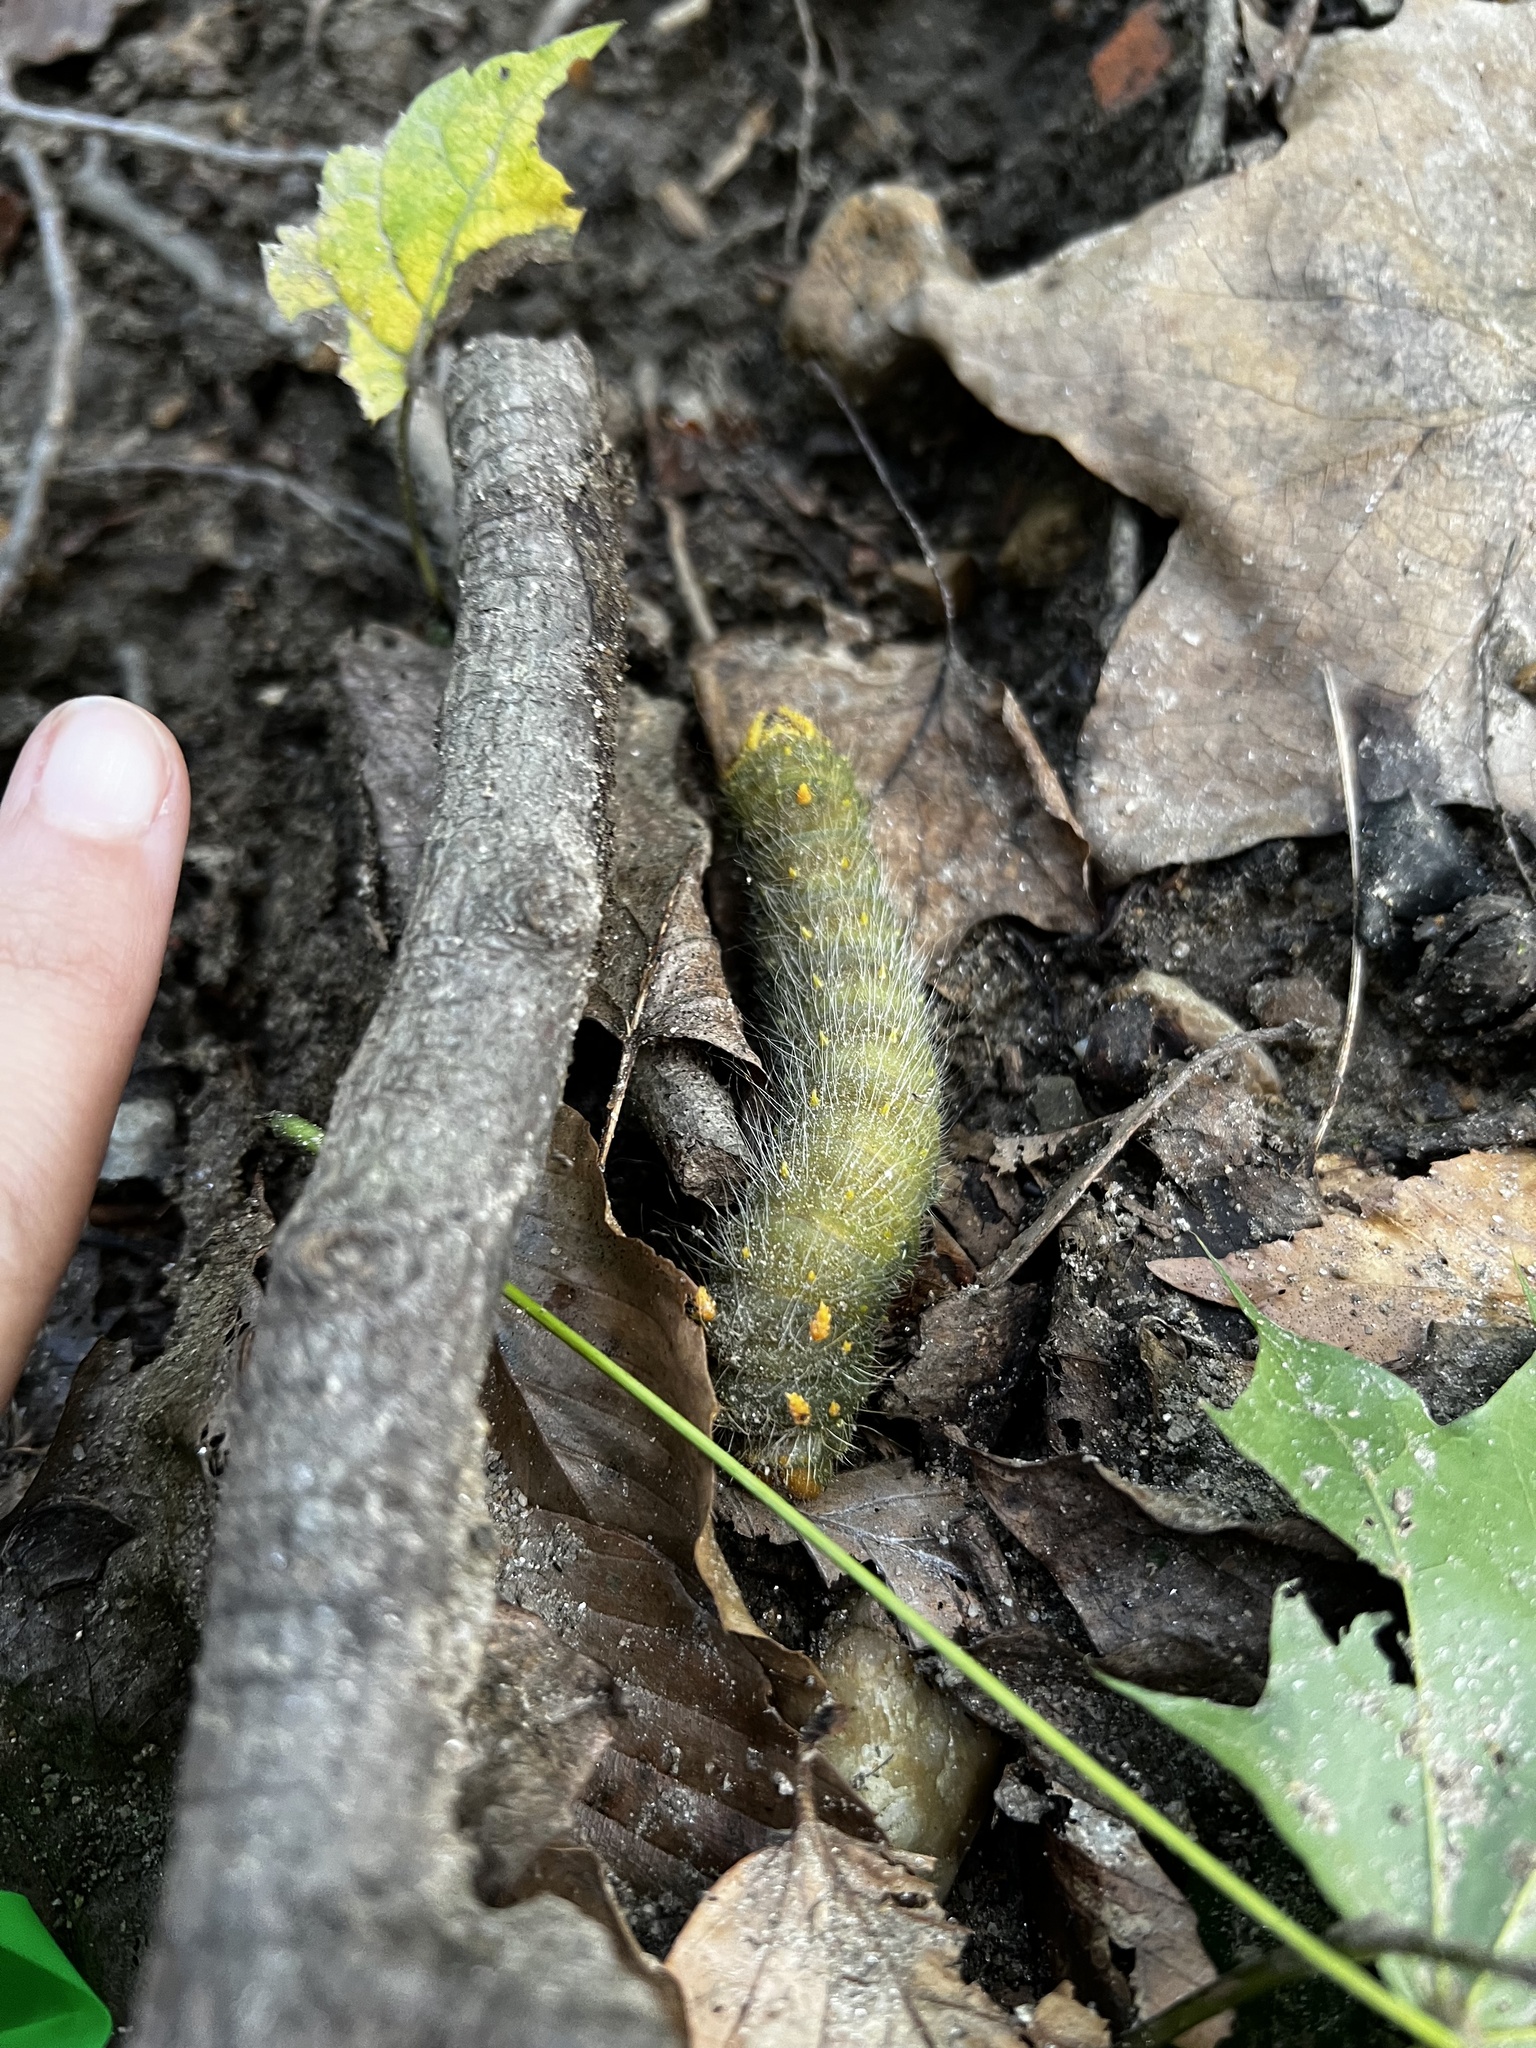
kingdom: Animalia
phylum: Arthropoda
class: Insecta
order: Lepidoptera
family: Saturniidae
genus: Eacles
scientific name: Eacles imperialis
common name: Imperial moth
